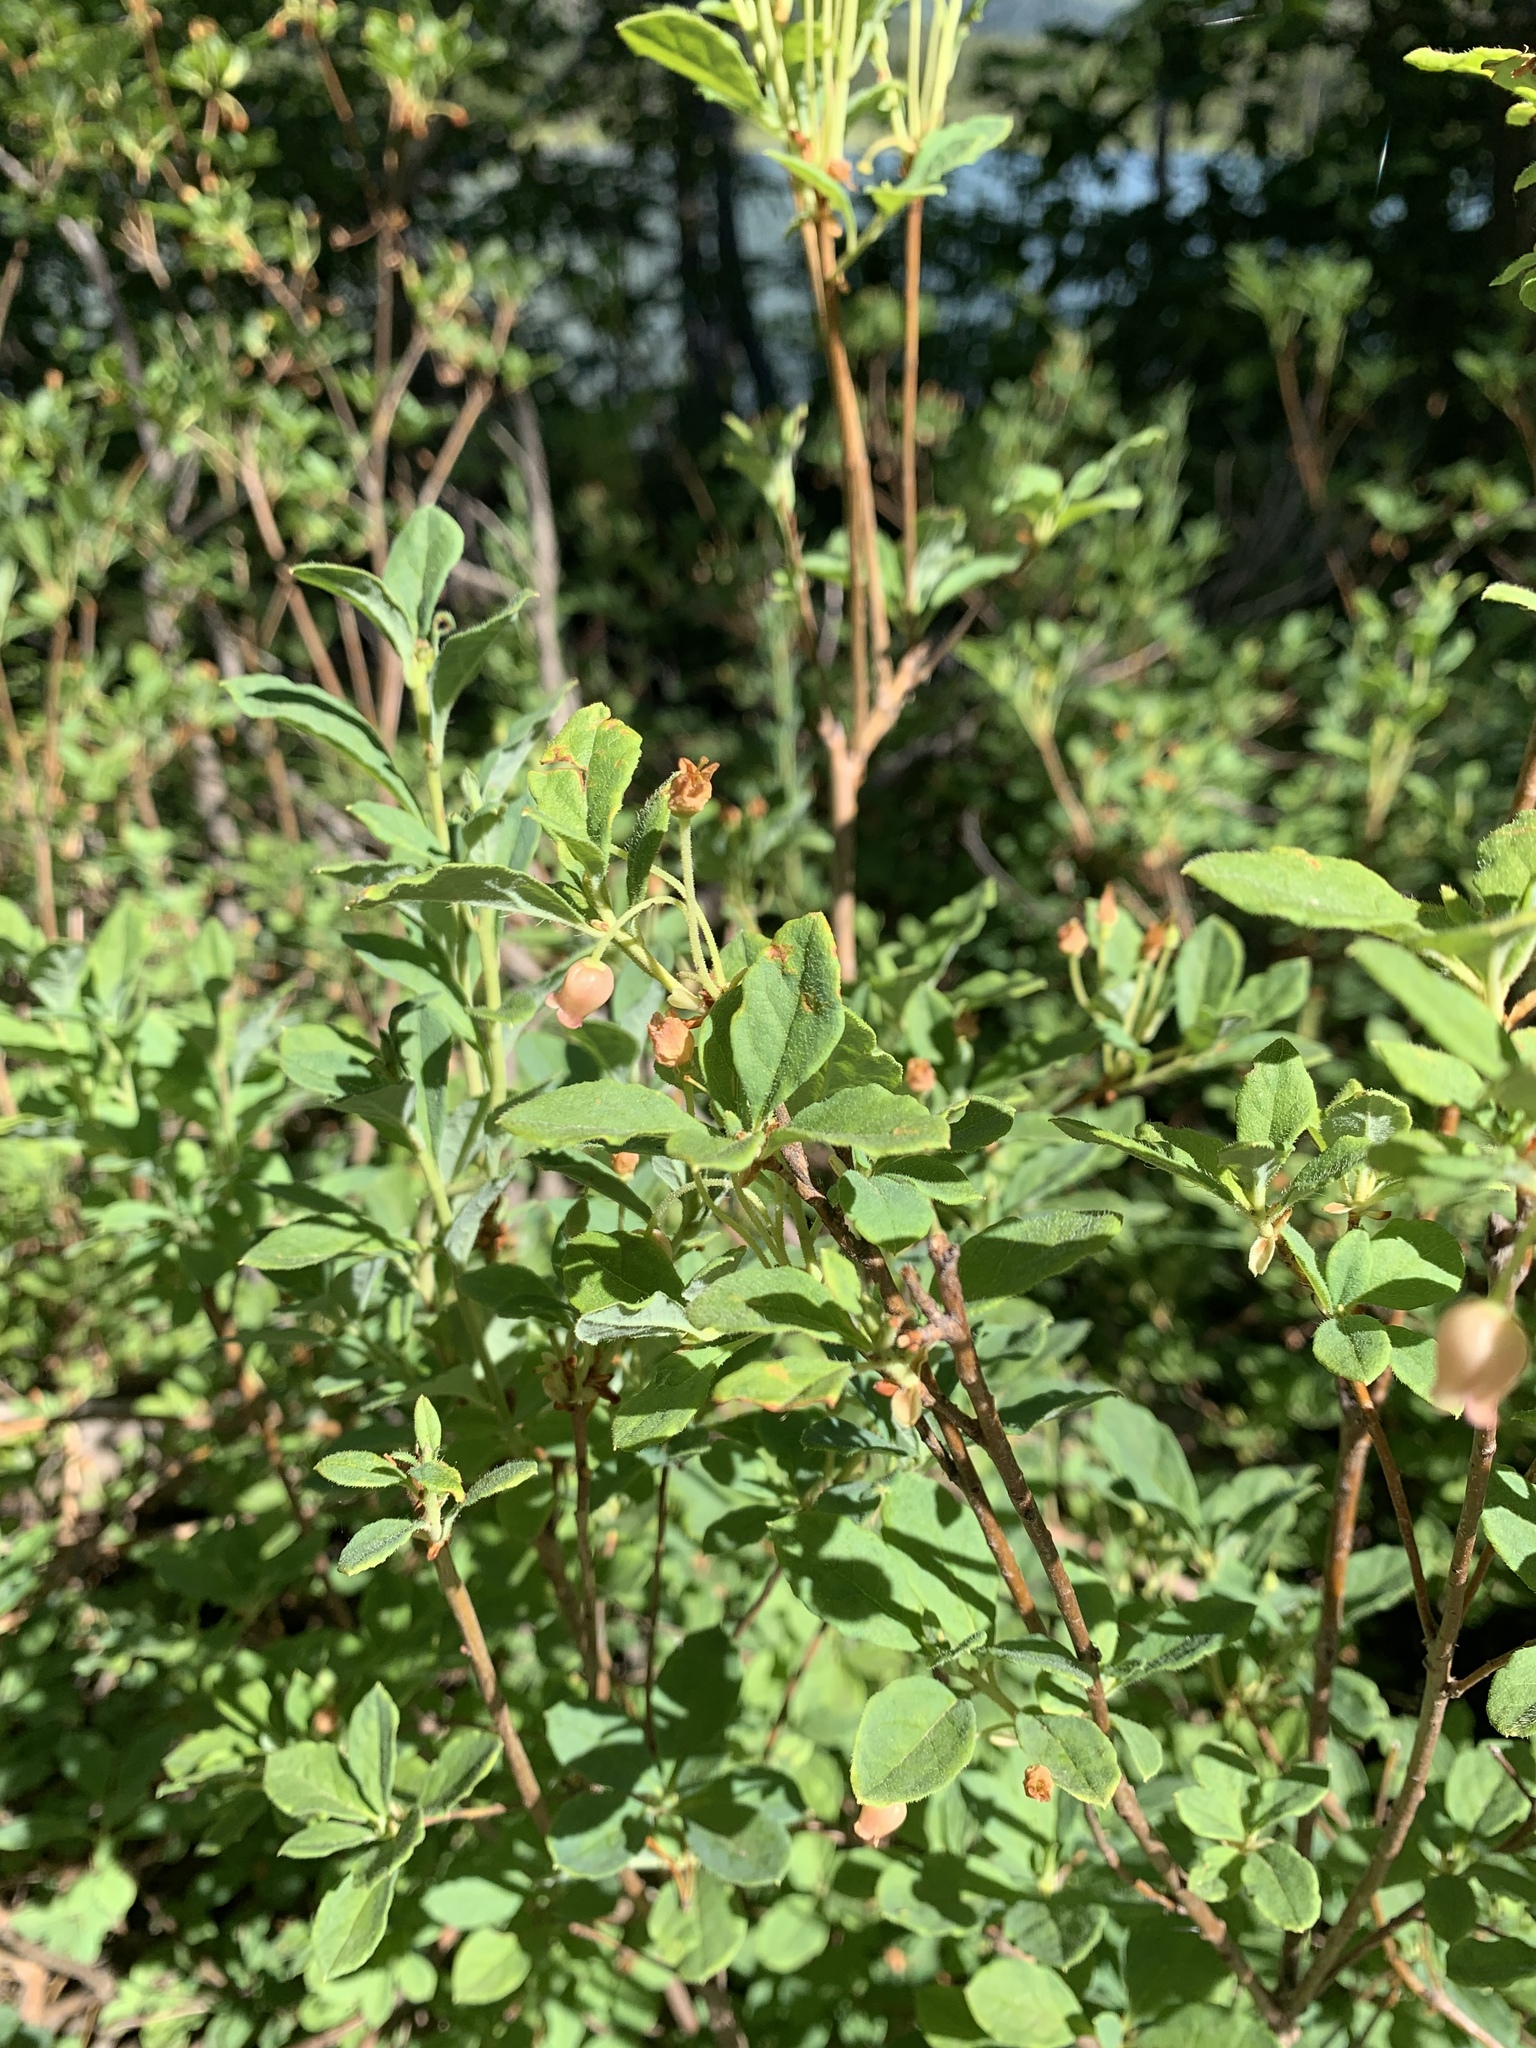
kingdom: Plantae
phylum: Tracheophyta
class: Magnoliopsida
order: Ericales
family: Ericaceae
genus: Rhododendron
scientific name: Rhododendron menziesii
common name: Pacific menziesia
